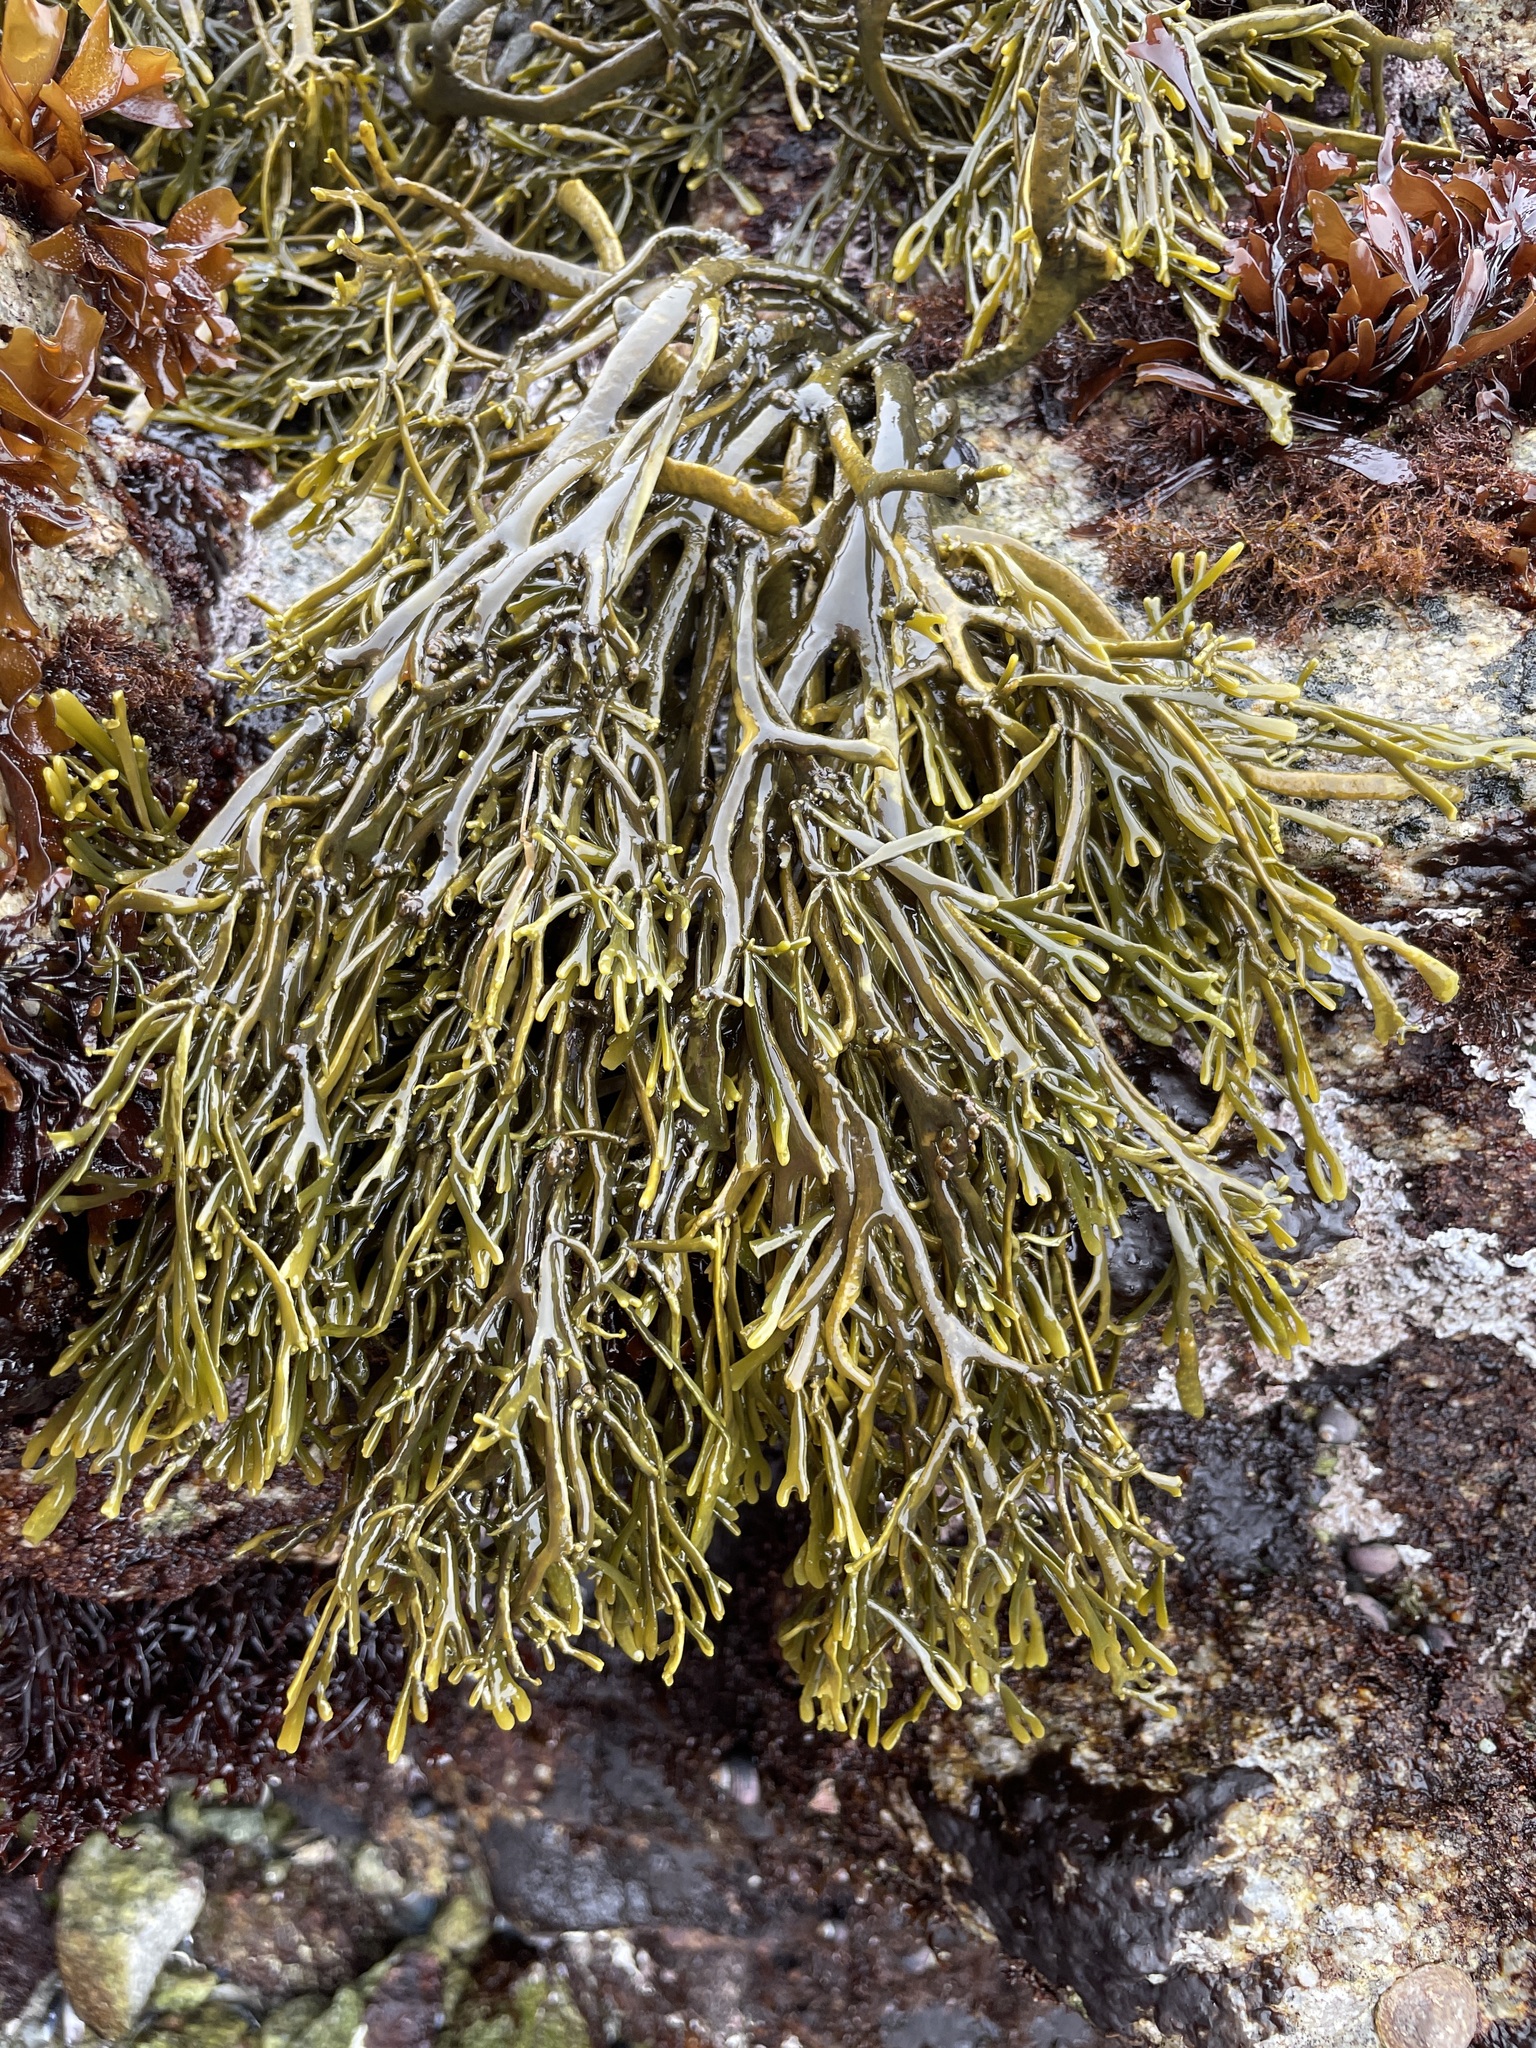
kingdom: Chromista
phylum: Ochrophyta
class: Phaeophyceae
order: Fucales
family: Fucaceae
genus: Silvetia
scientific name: Silvetia
